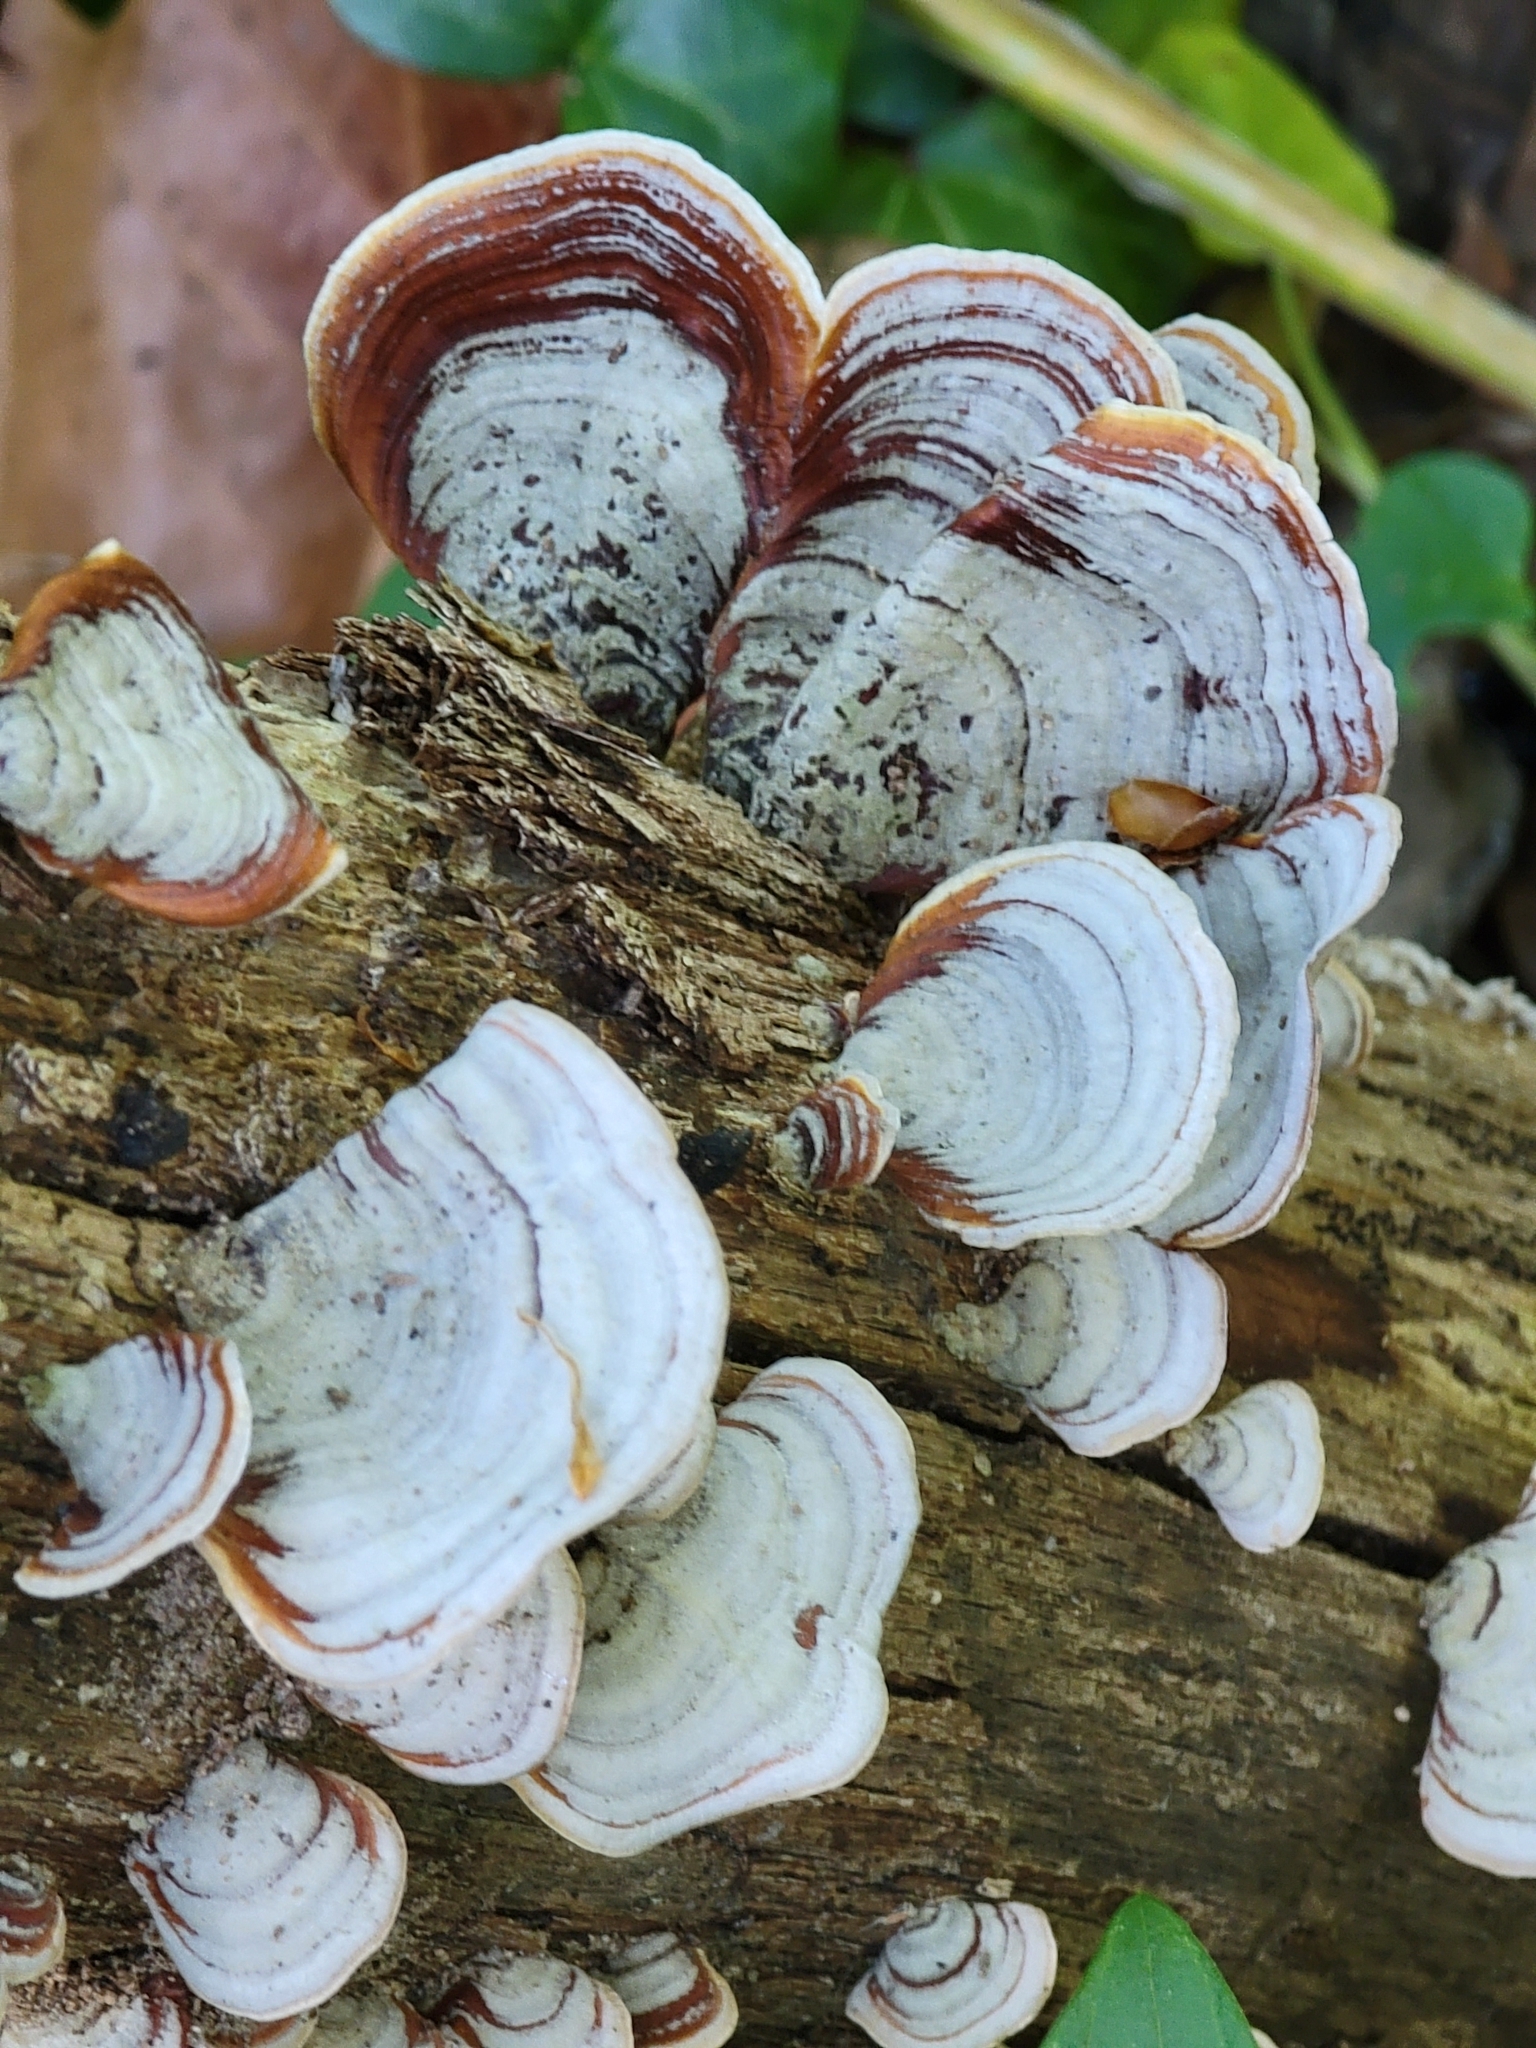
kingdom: Fungi
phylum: Basidiomycota
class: Agaricomycetes
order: Russulales
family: Stereaceae
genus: Stereum
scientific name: Stereum lobatum
